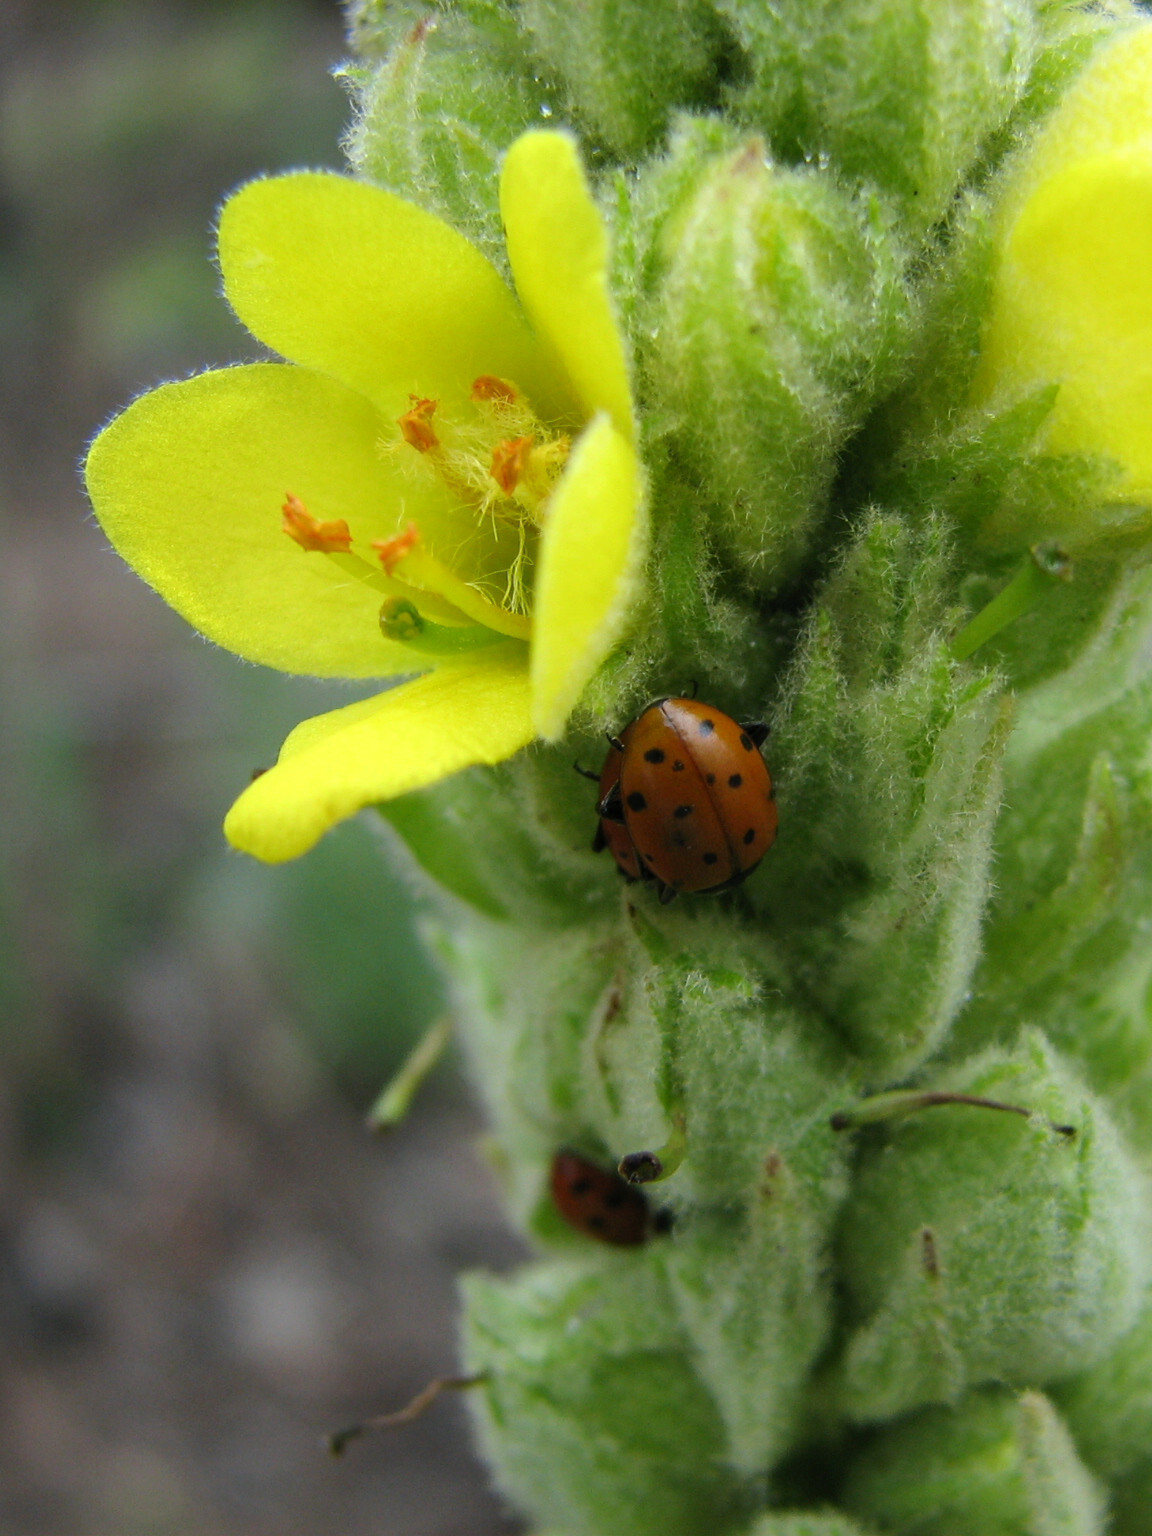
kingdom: Animalia
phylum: Arthropoda
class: Insecta
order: Coleoptera
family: Coccinellidae
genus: Hippodamia
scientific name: Hippodamia convergens
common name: Convergent lady beetle
